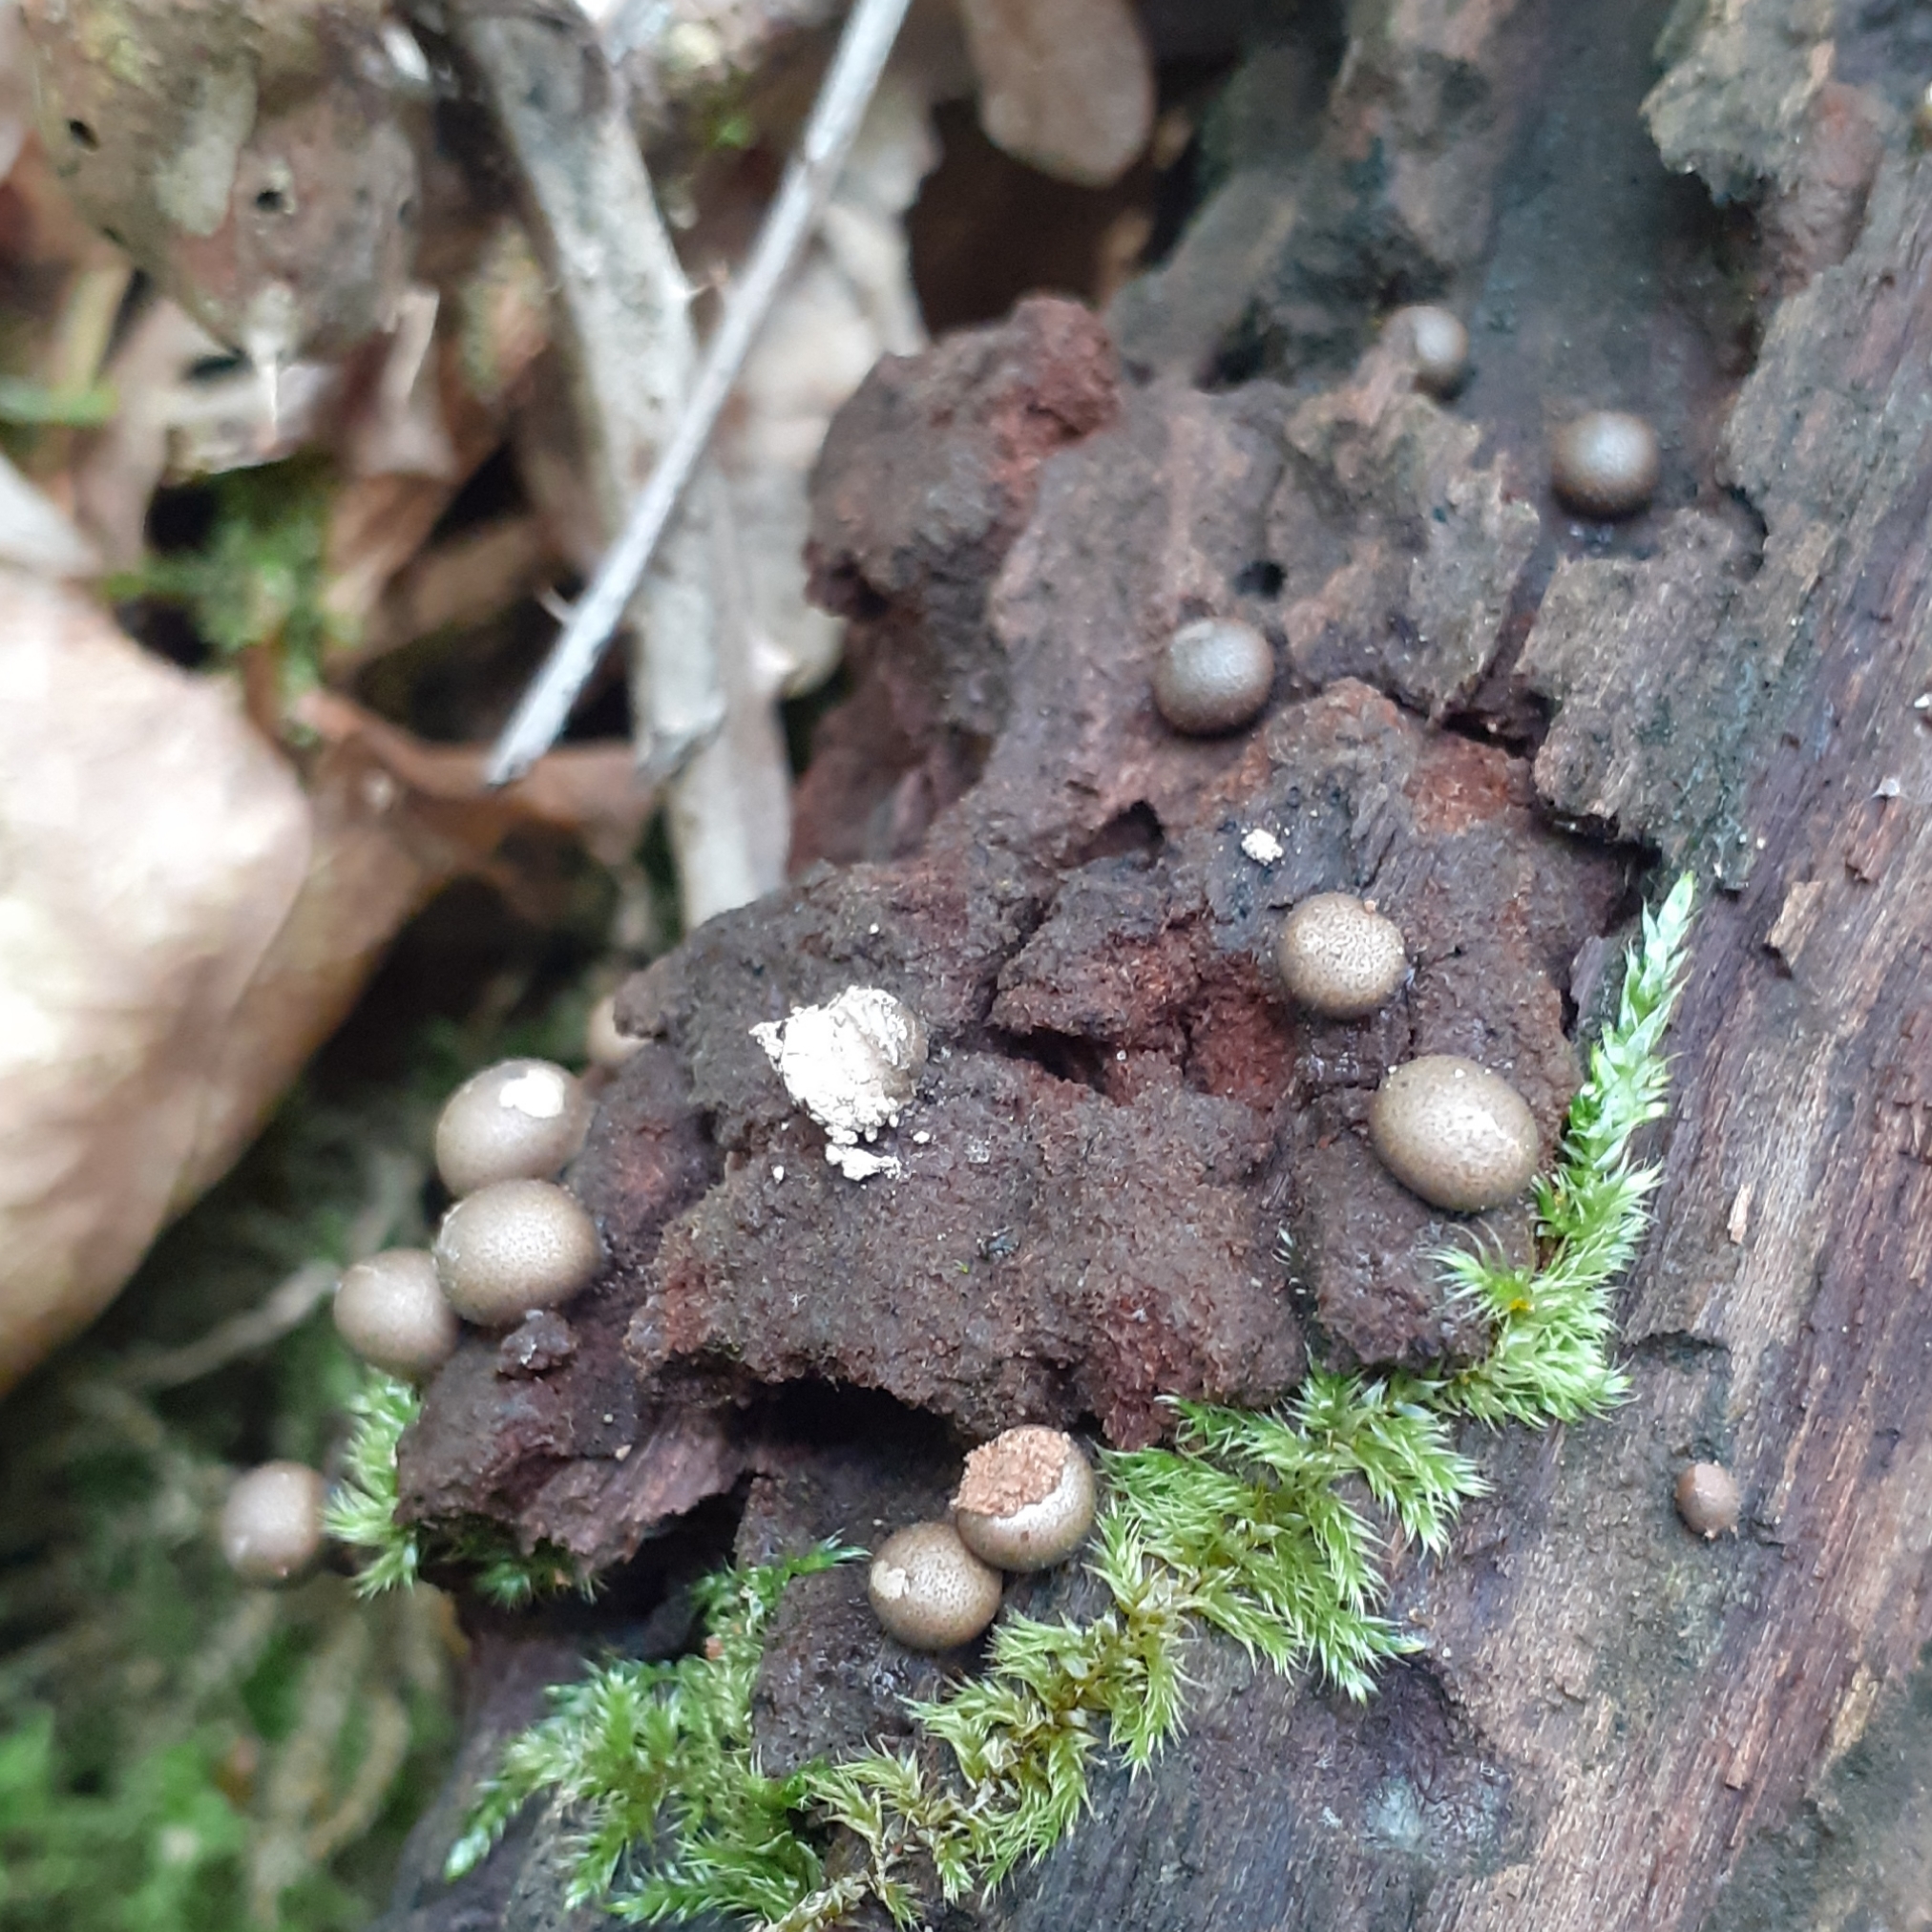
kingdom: Protozoa
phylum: Mycetozoa
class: Myxomycetes
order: Cribrariales
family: Tubiferaceae
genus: Lycogala
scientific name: Lycogala epidendrum
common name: Wolf's milk
